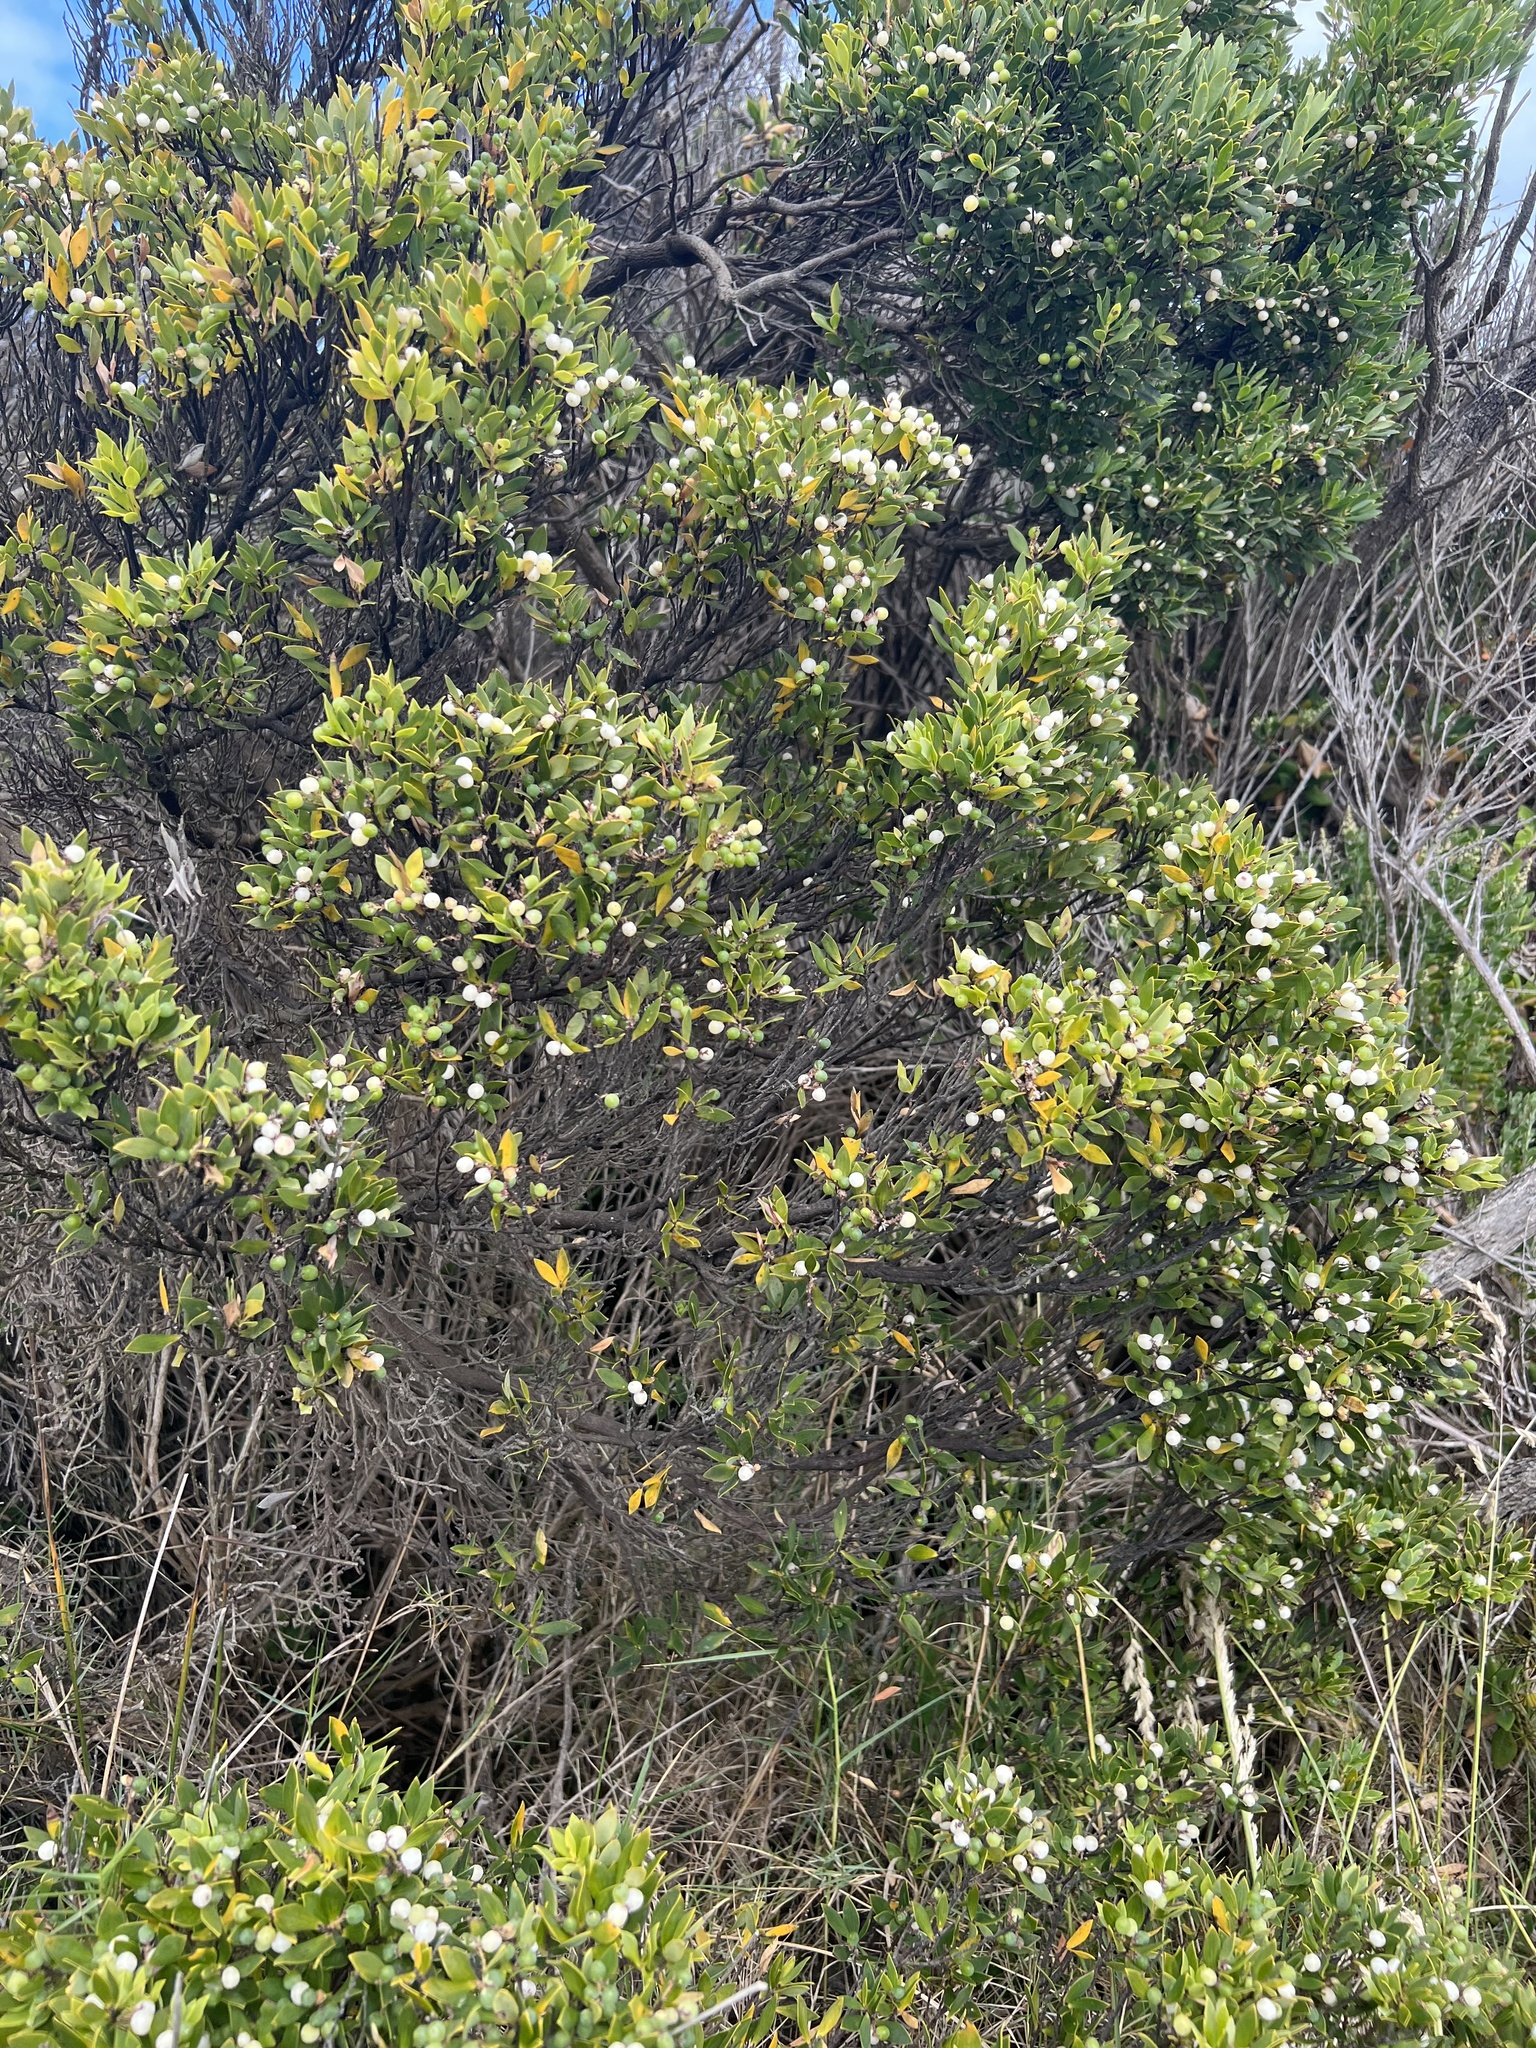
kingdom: Plantae
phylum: Tracheophyta
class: Magnoliopsida
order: Ericales
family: Ericaceae
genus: Leptecophylla
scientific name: Leptecophylla parvifolia
